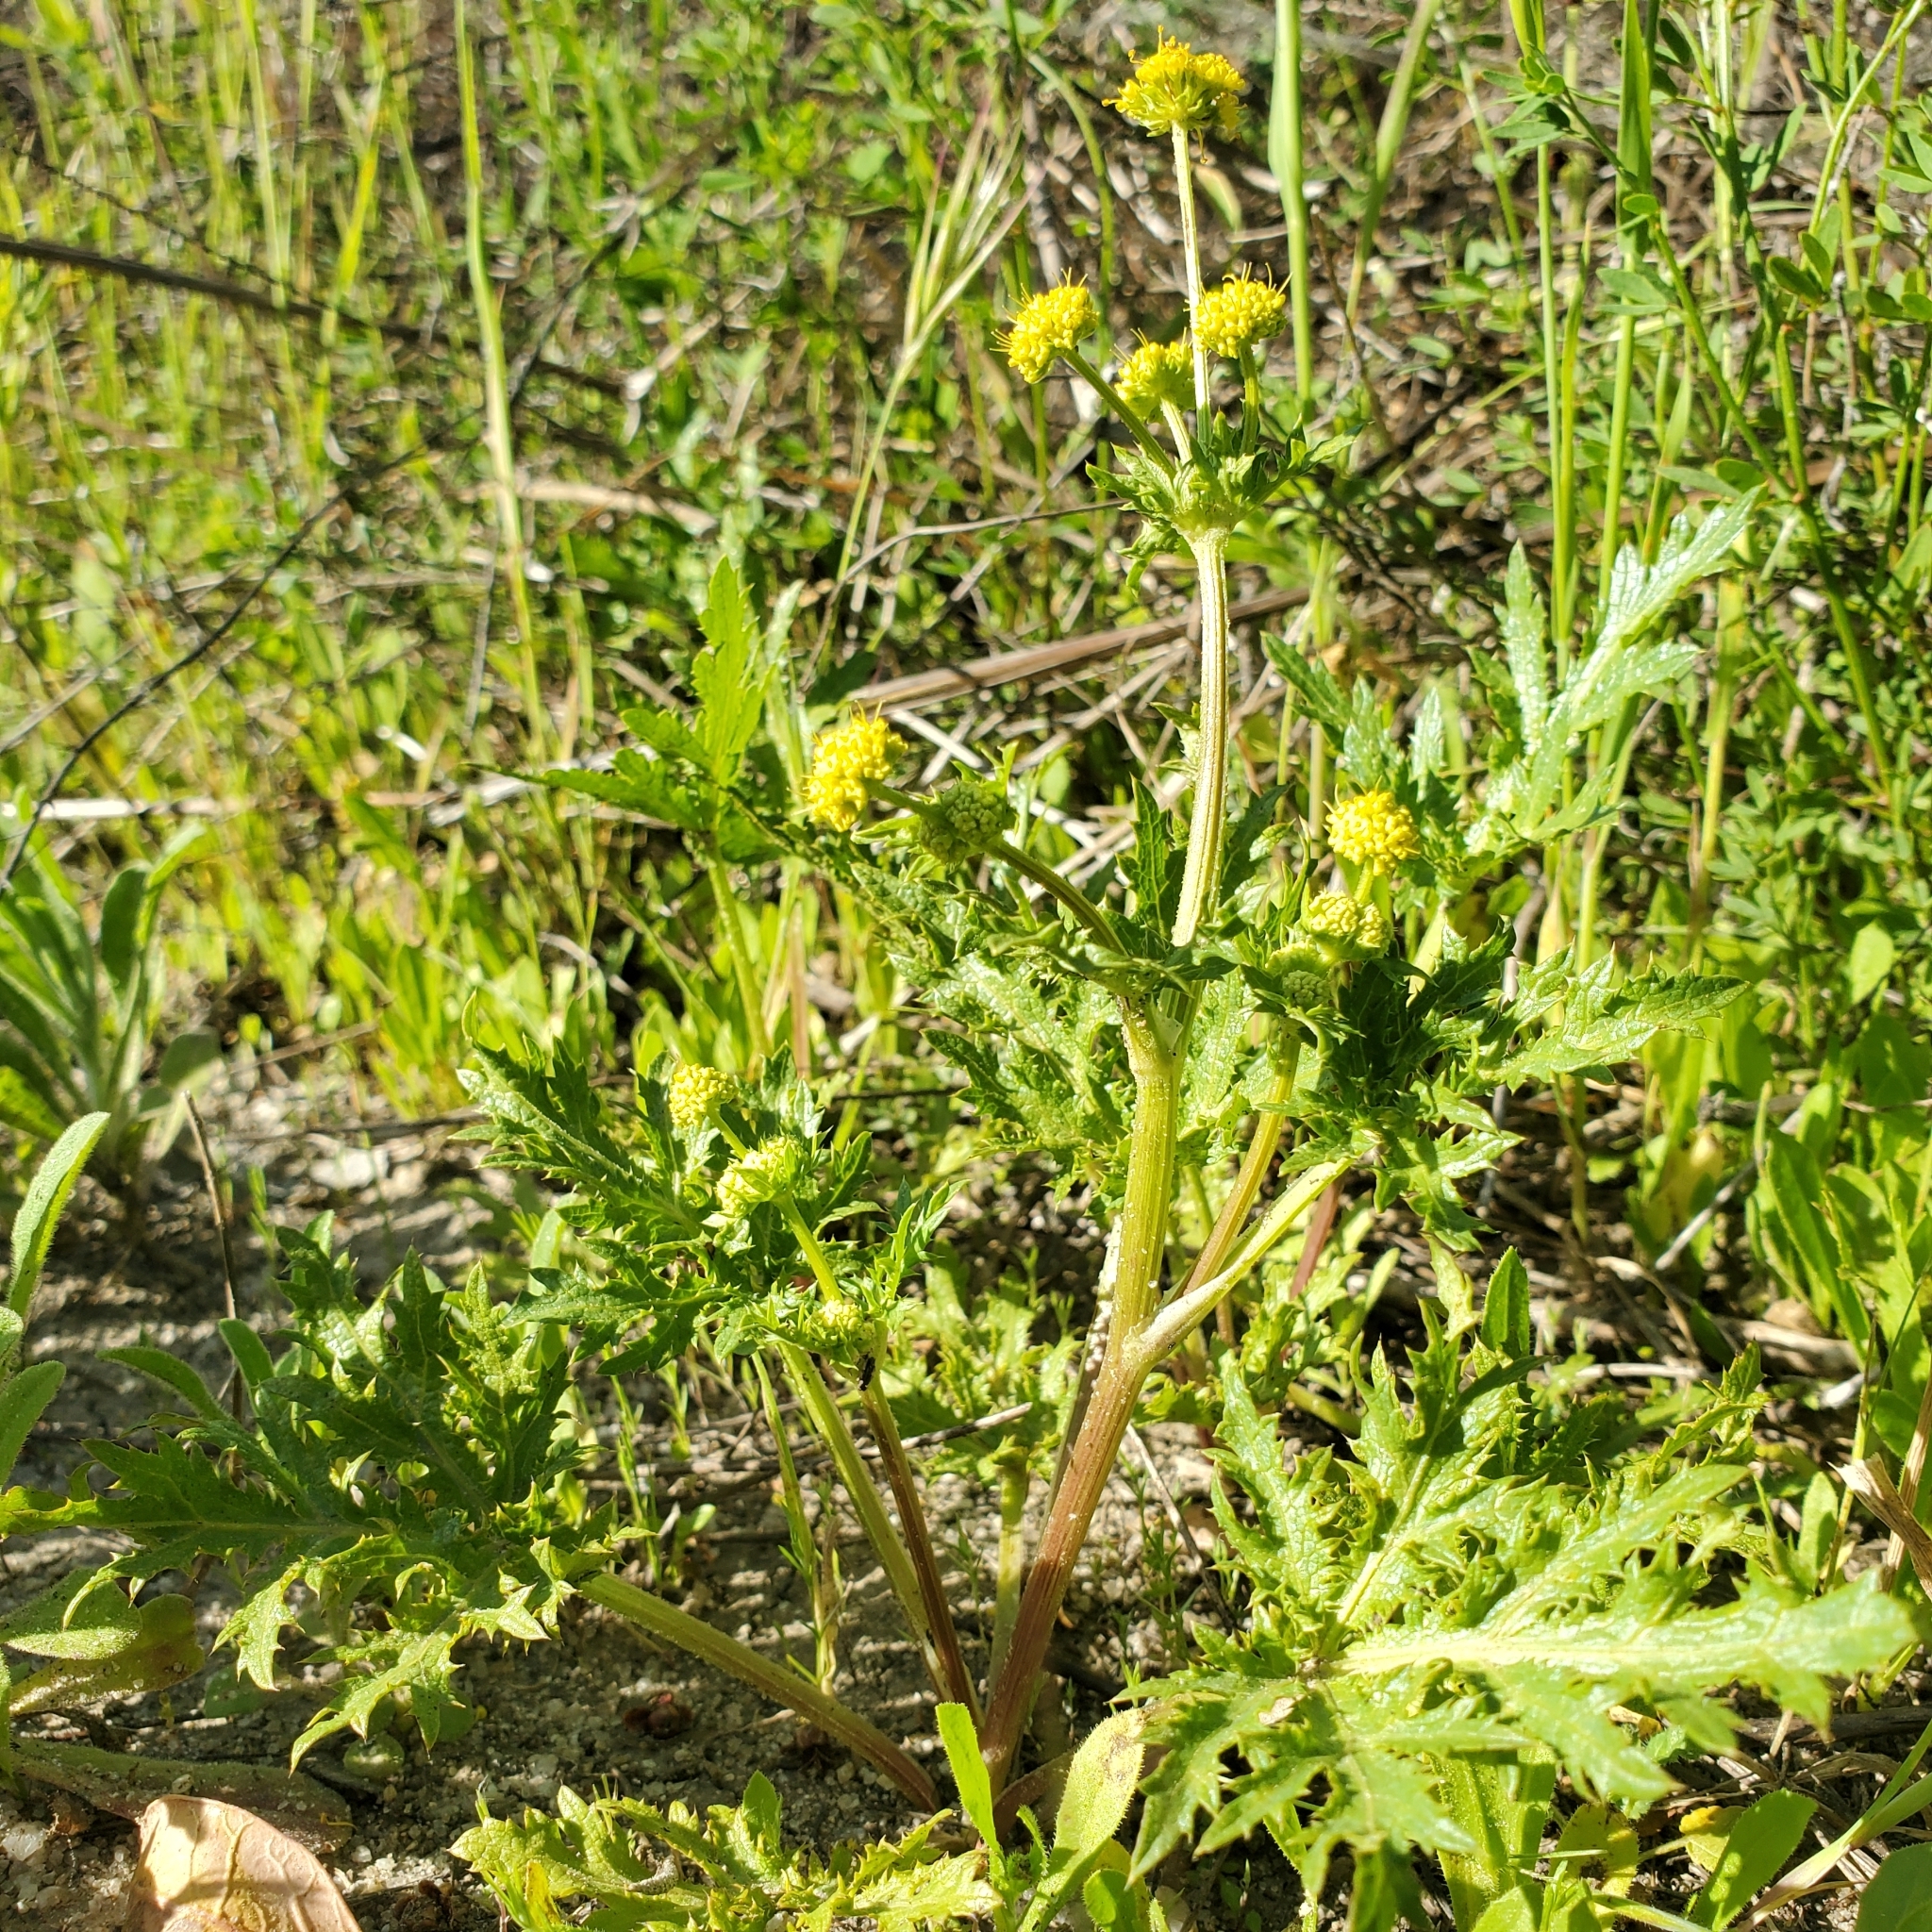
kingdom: Plantae
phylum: Tracheophyta
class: Magnoliopsida
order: Apiales
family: Apiaceae
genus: Sanicula
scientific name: Sanicula arguta
